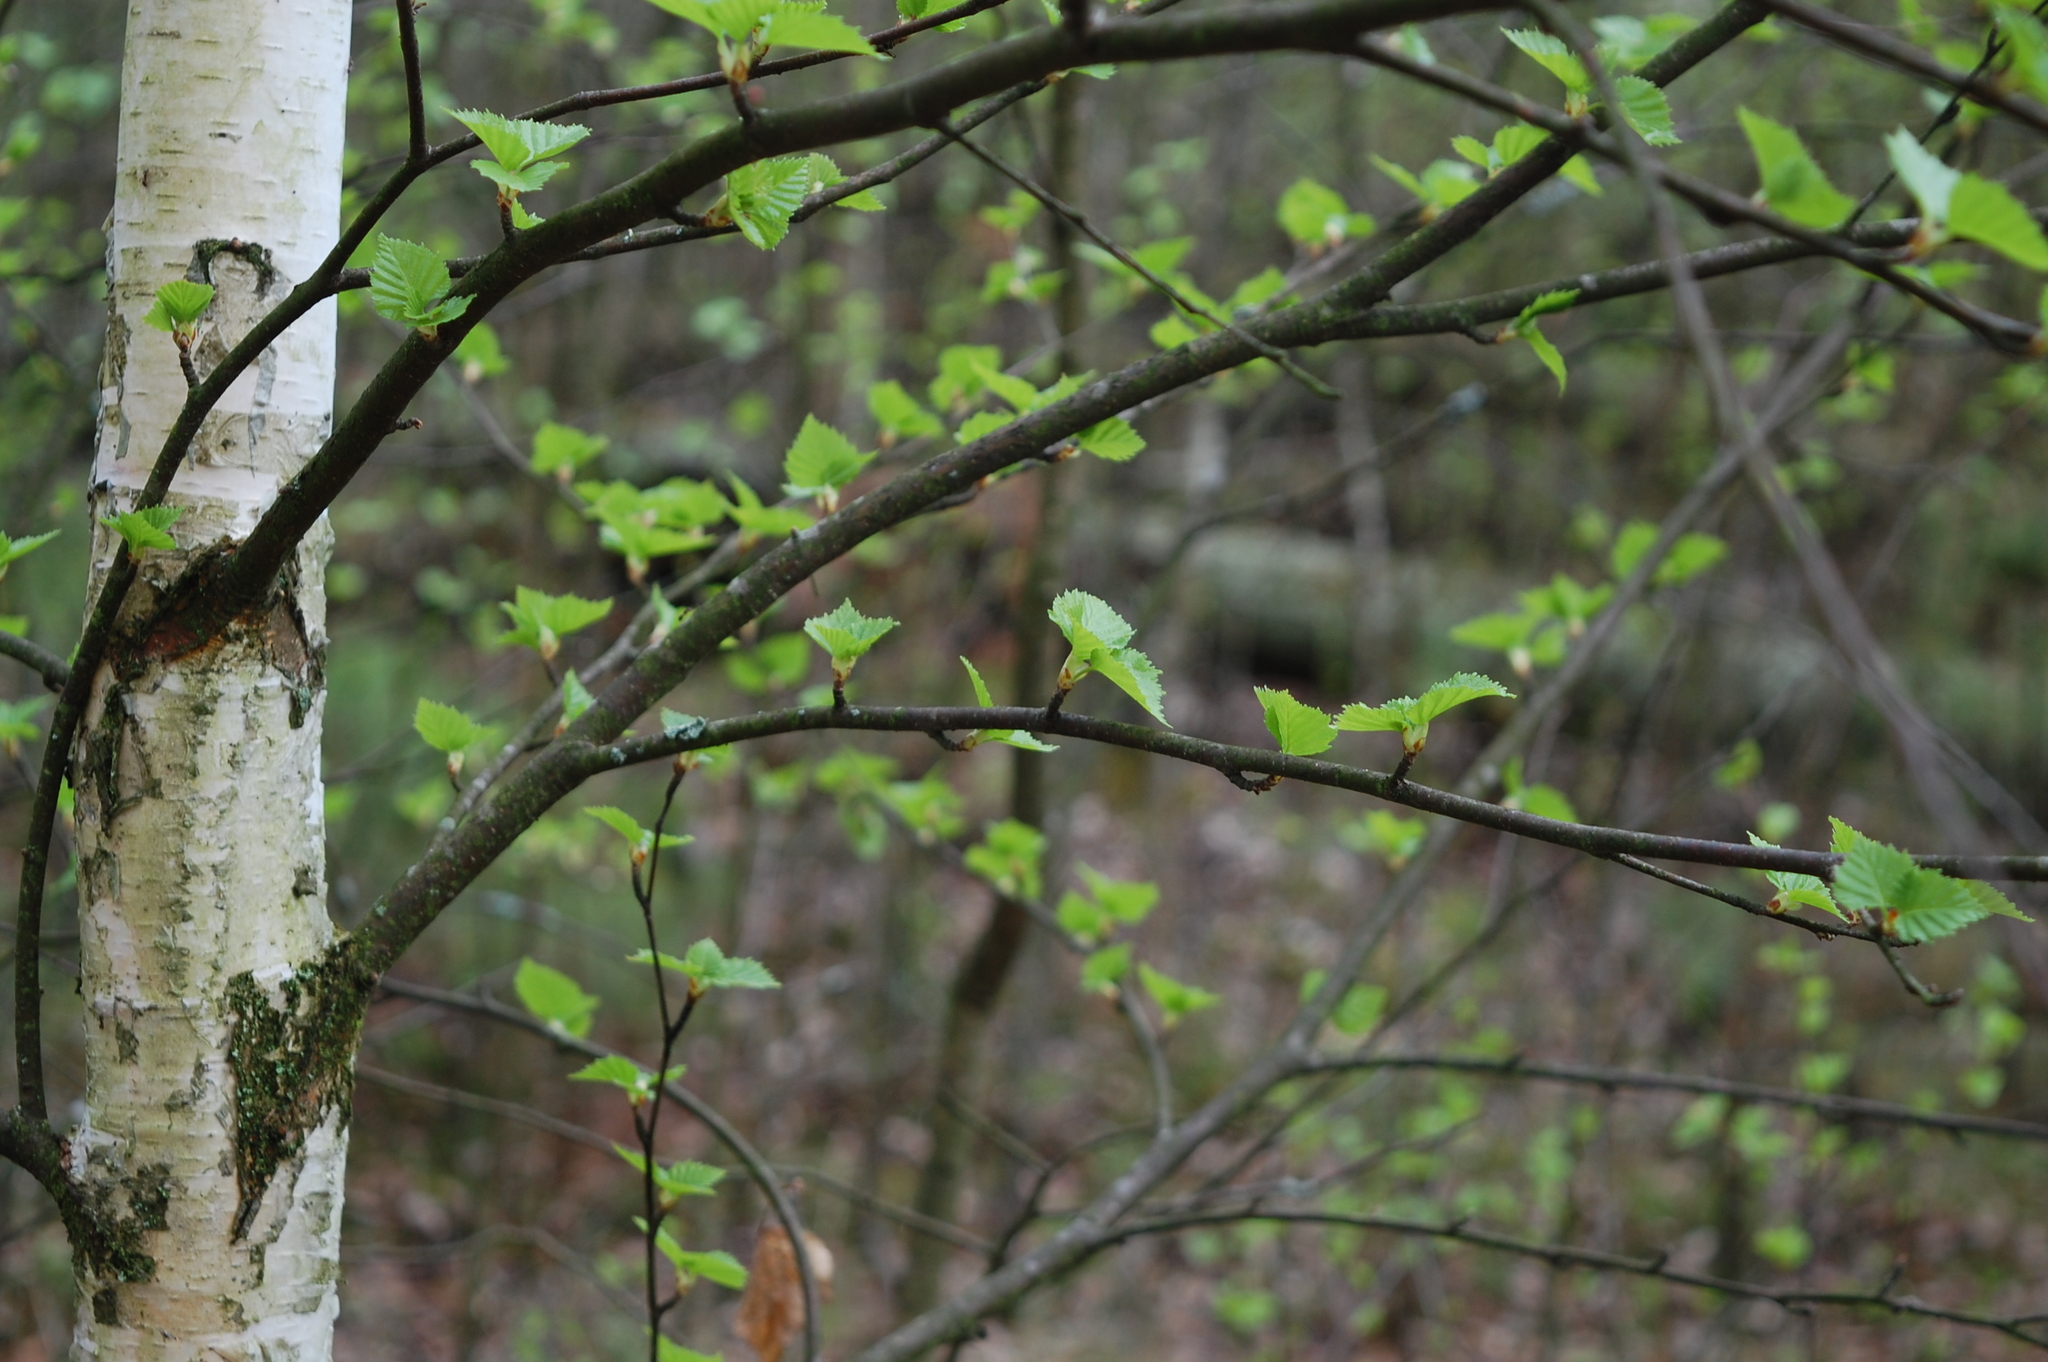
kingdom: Plantae
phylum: Tracheophyta
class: Magnoliopsida
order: Fagales
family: Betulaceae
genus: Betula
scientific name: Betula pendula
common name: Silver birch
